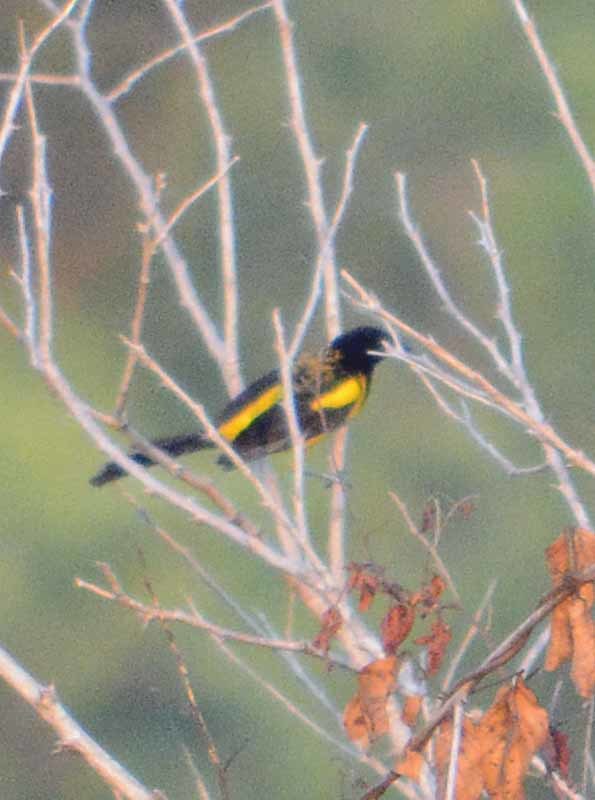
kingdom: Animalia
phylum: Chordata
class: Aves
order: Passeriformes
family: Icteridae
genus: Icterus
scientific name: Icterus prosthemelas
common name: Black-cowled oriole
